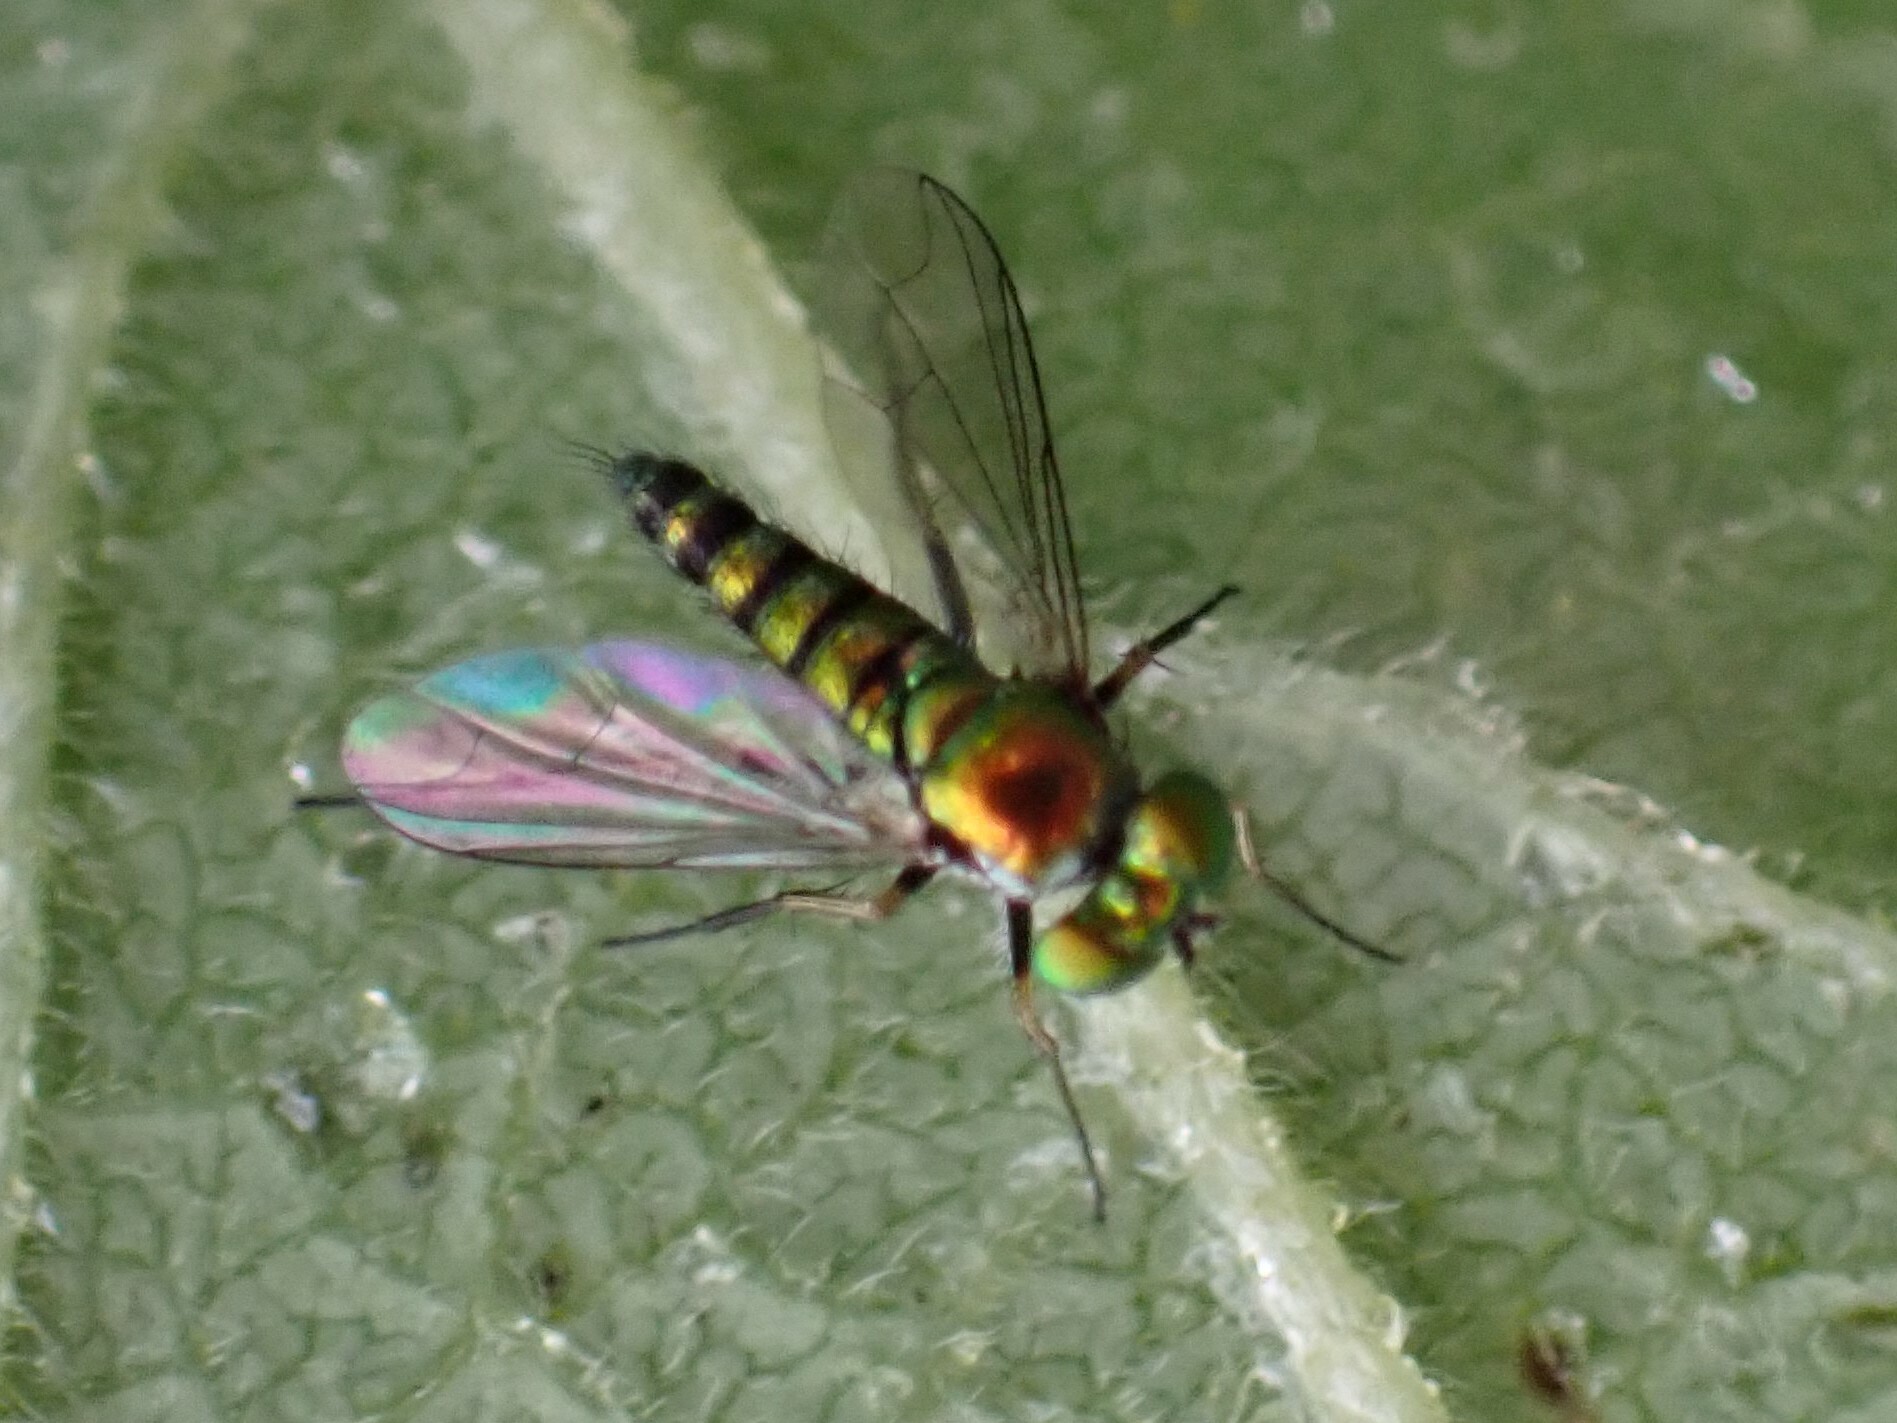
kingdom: Animalia
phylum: Arthropoda
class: Insecta
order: Diptera
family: Dolichopodidae
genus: Condylostylus
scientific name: Condylostylus
